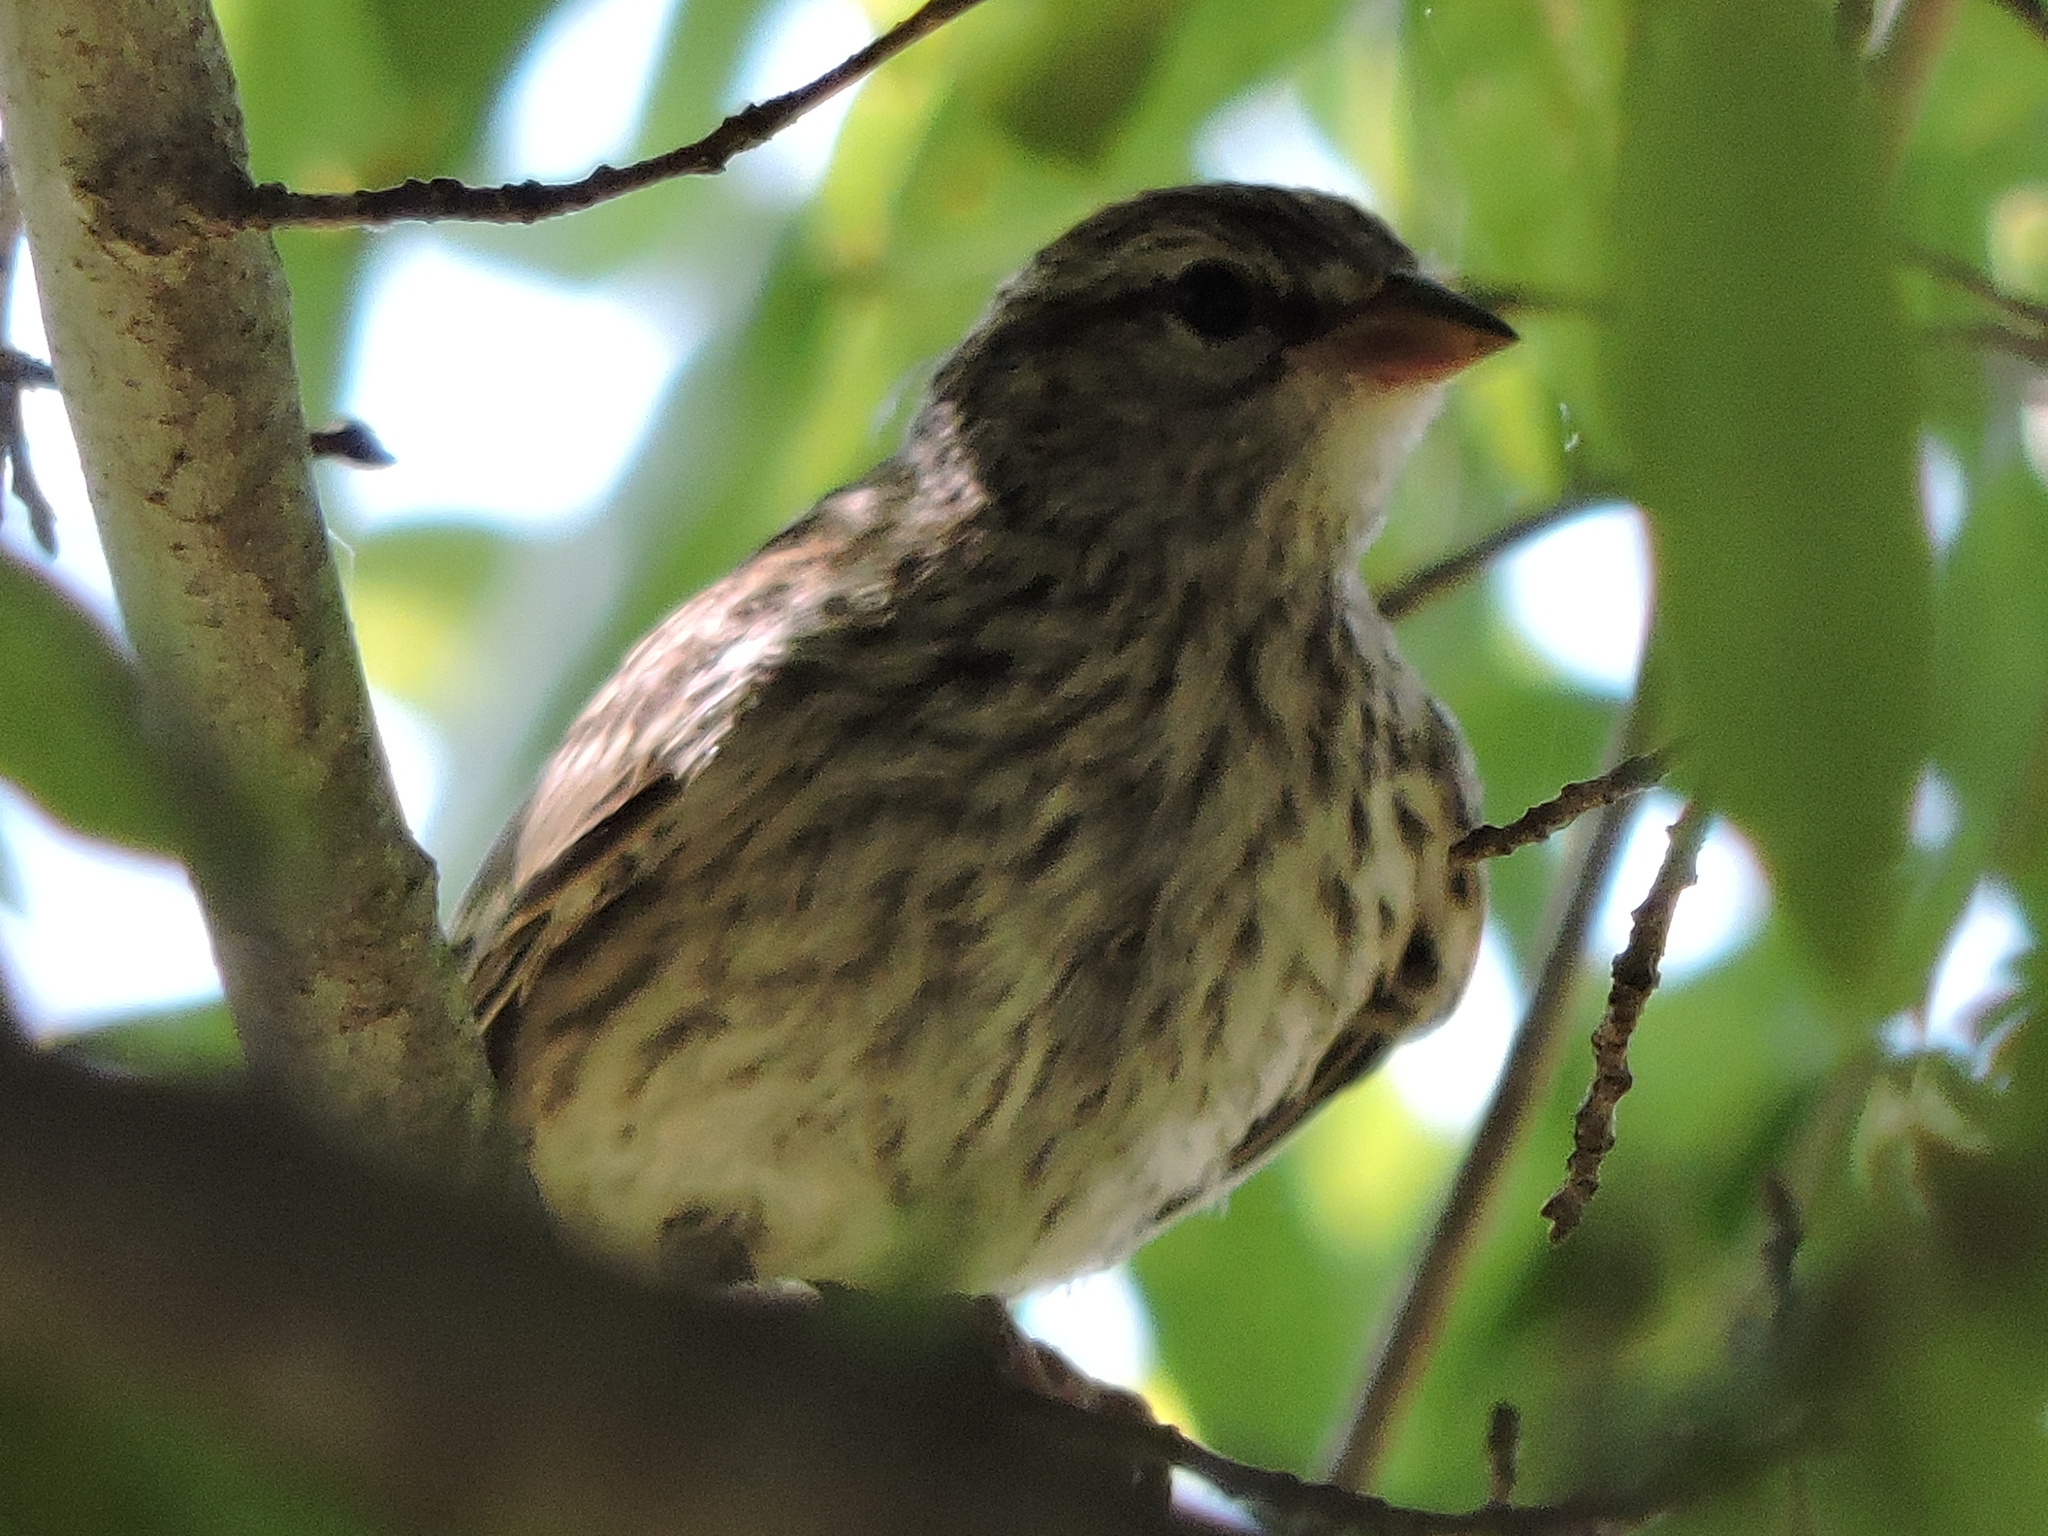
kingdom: Animalia
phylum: Chordata
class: Aves
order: Passeriformes
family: Passerellidae
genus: Spizella
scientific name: Spizella passerina
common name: Chipping sparrow
